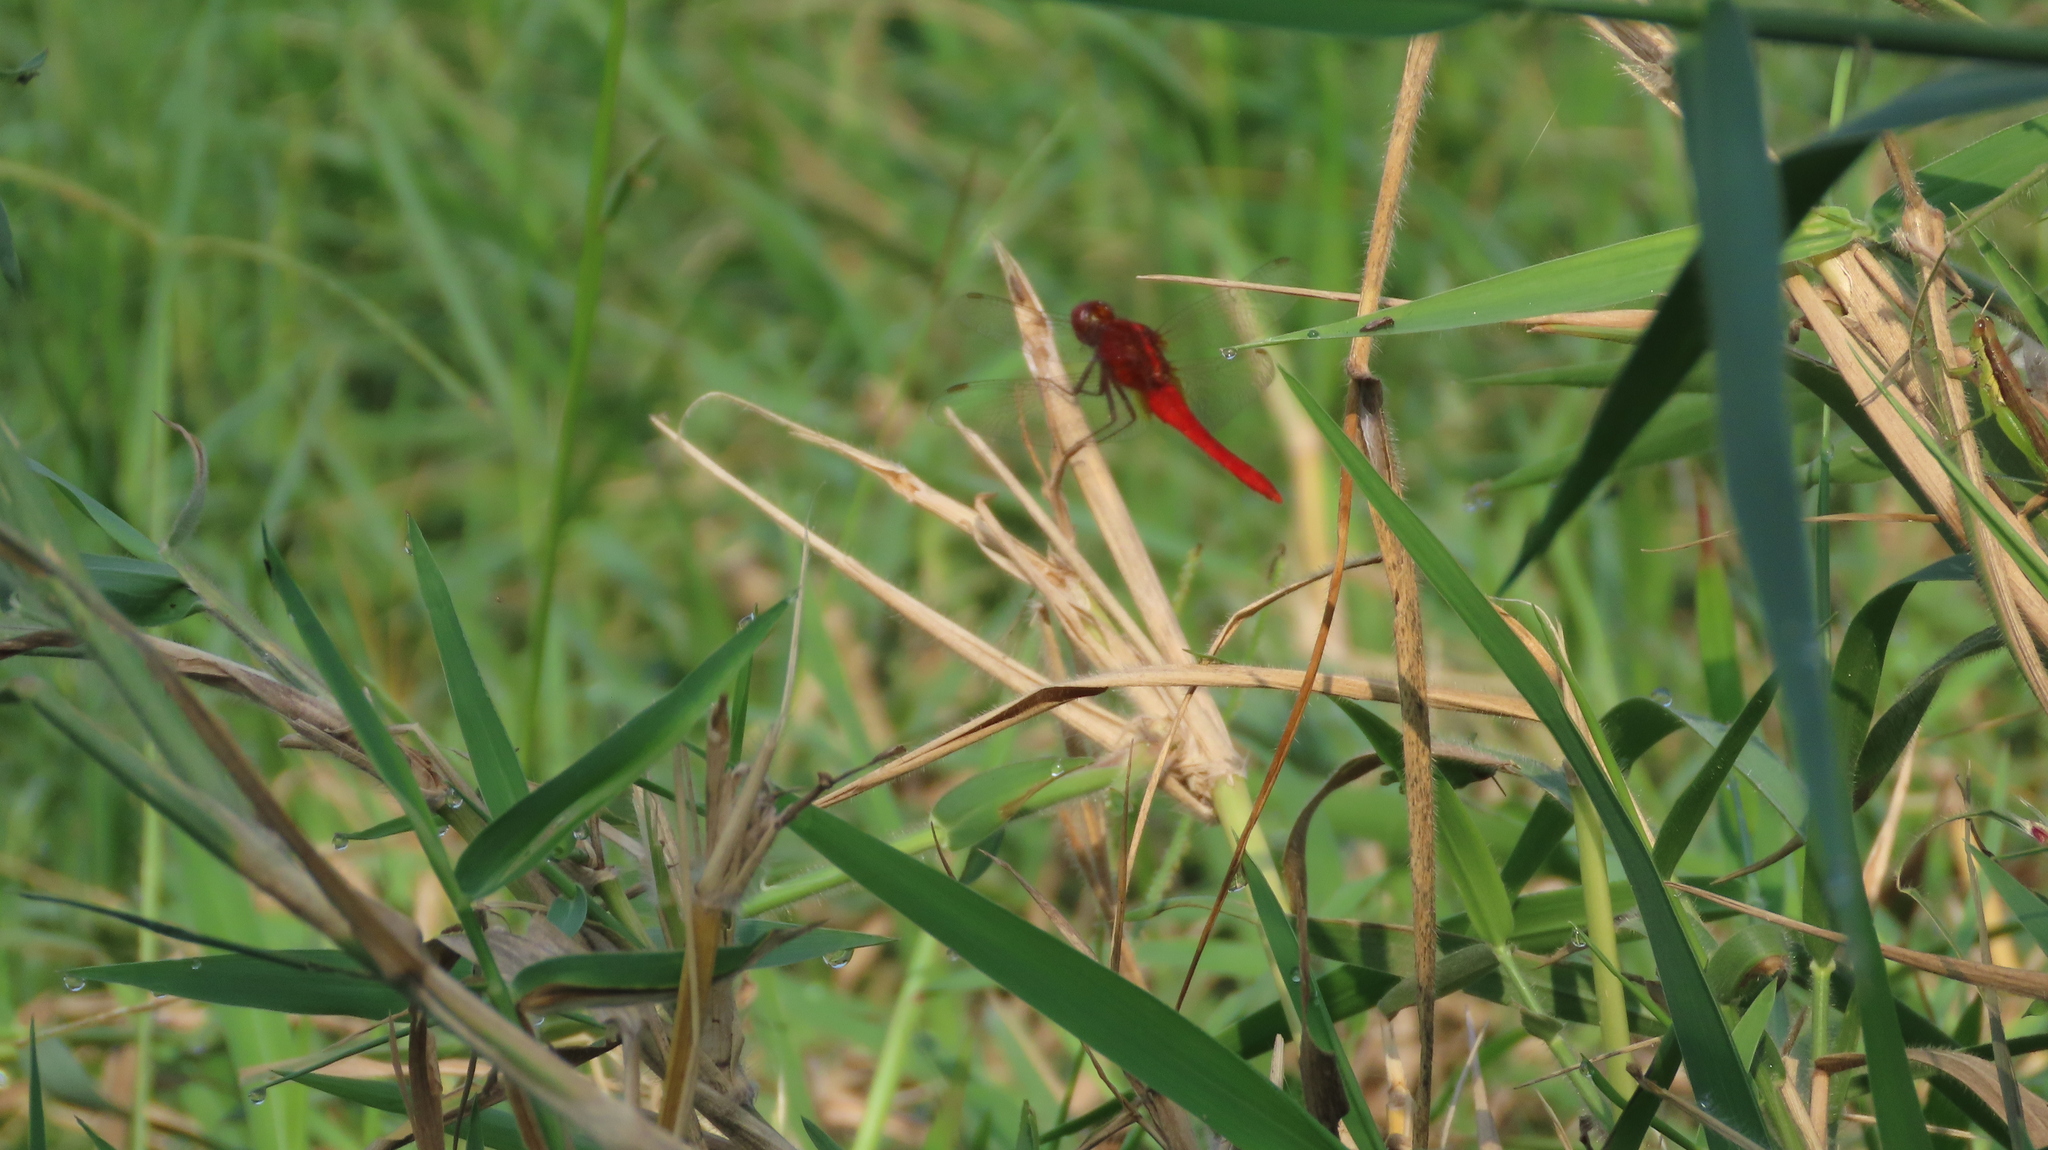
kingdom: Animalia
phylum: Arthropoda
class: Insecta
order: Odonata
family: Libellulidae
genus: Rhodothemis
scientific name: Rhodothemis rufa
